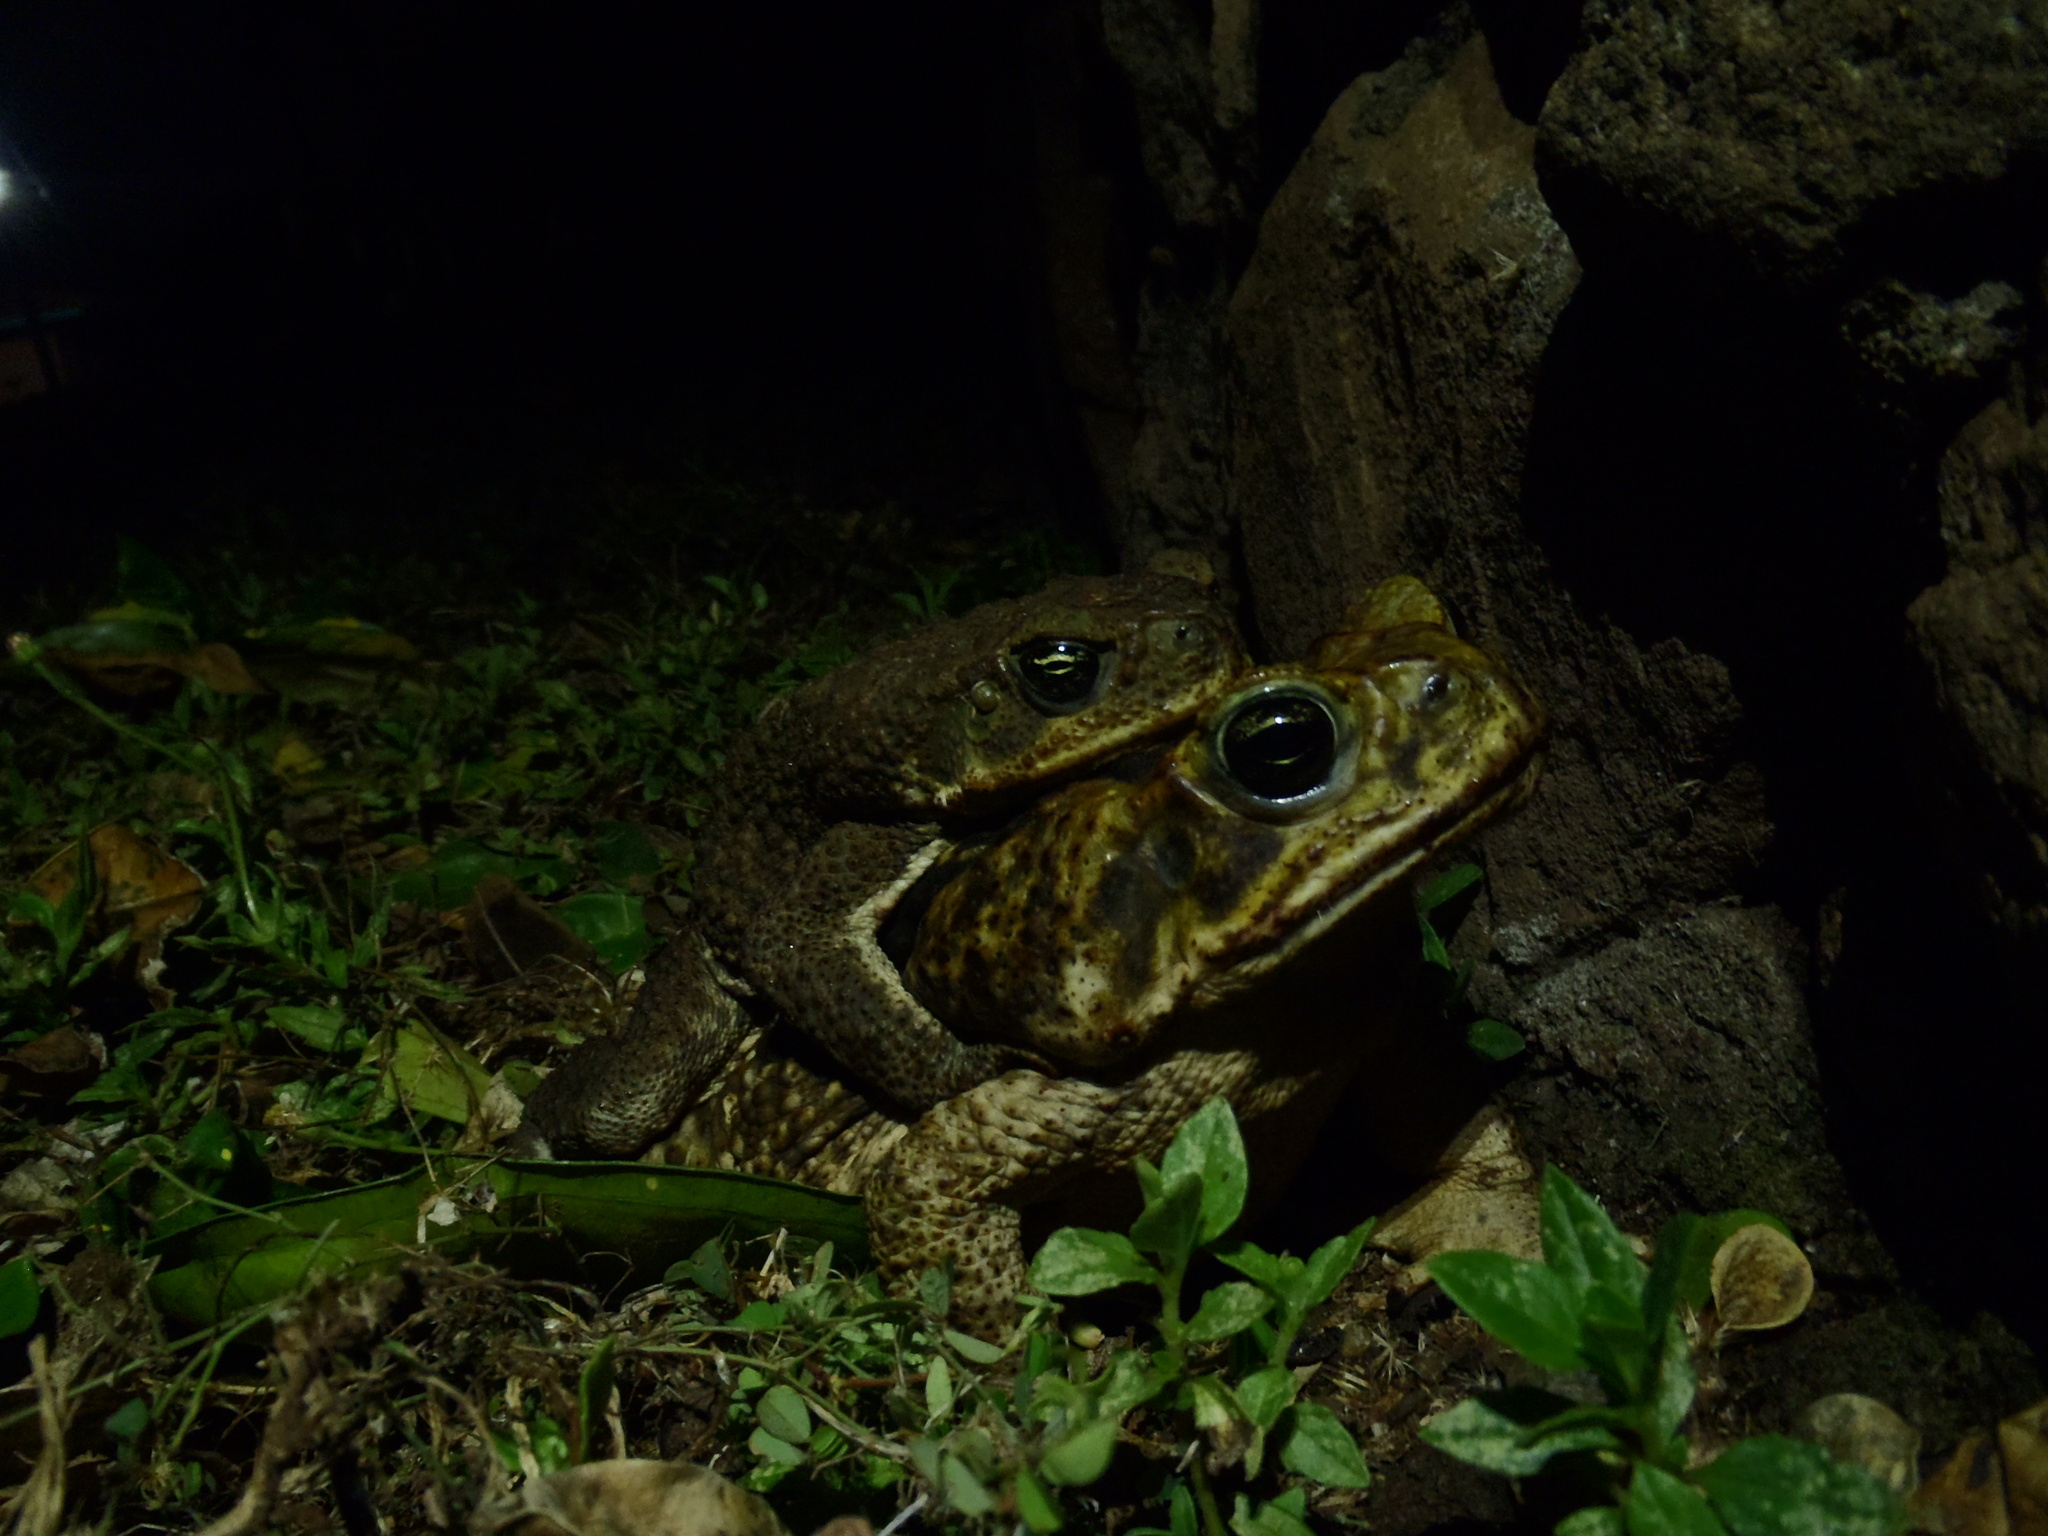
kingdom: Animalia
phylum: Chordata
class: Amphibia
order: Anura
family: Bufonidae
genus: Rhinella
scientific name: Rhinella horribilis
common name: Mesoamerican cane toad
